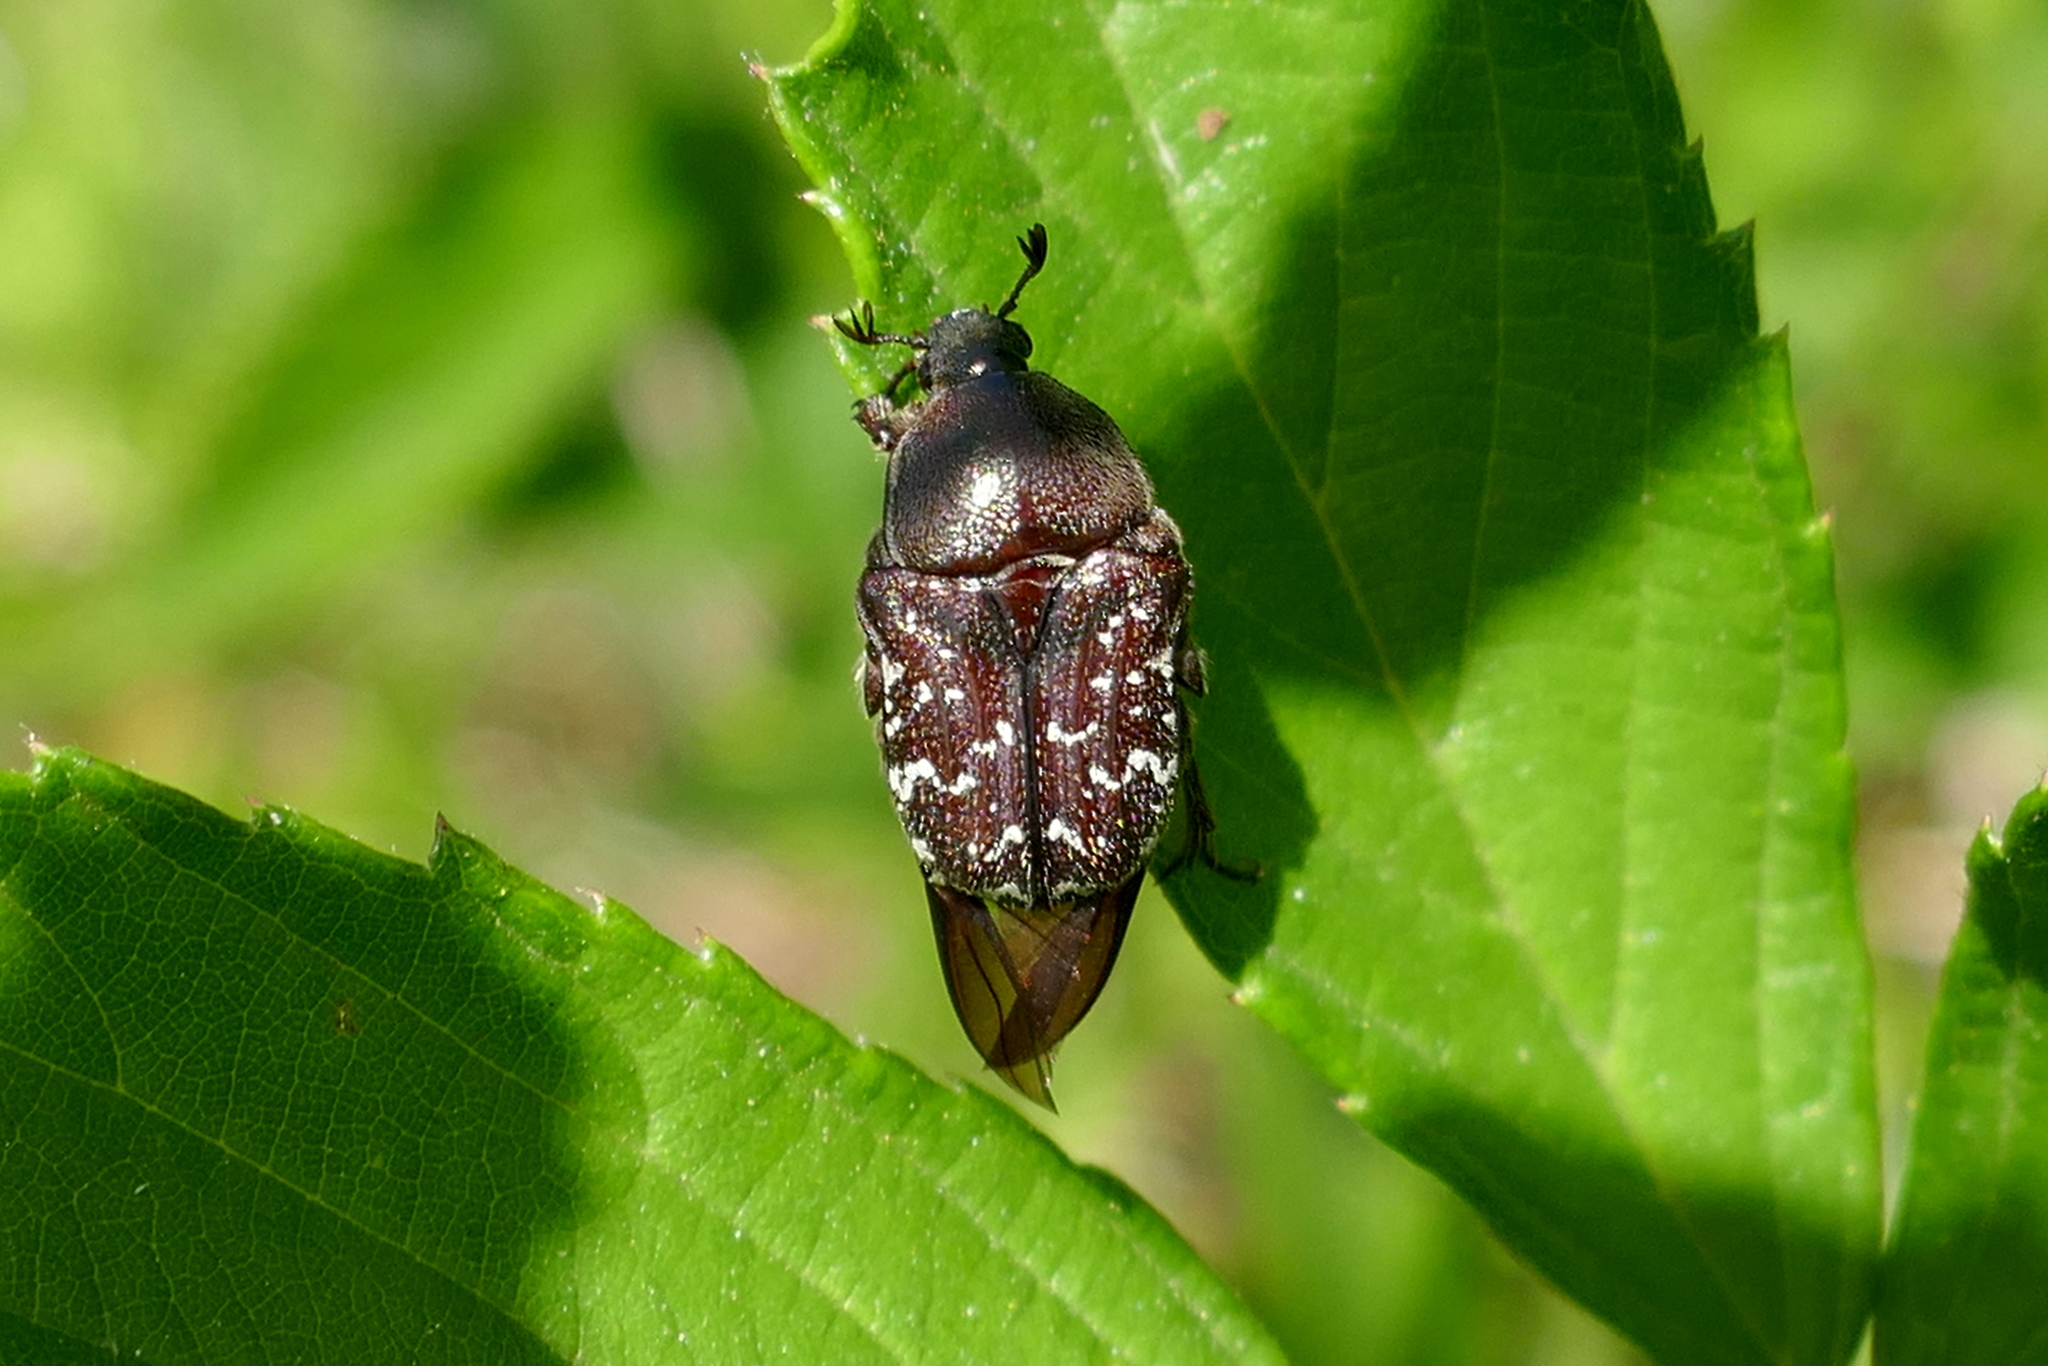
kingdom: Animalia
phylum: Arthropoda
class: Insecta
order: Coleoptera
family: Scarabaeidae
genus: Euphoria
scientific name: Euphoria sepulcralis
